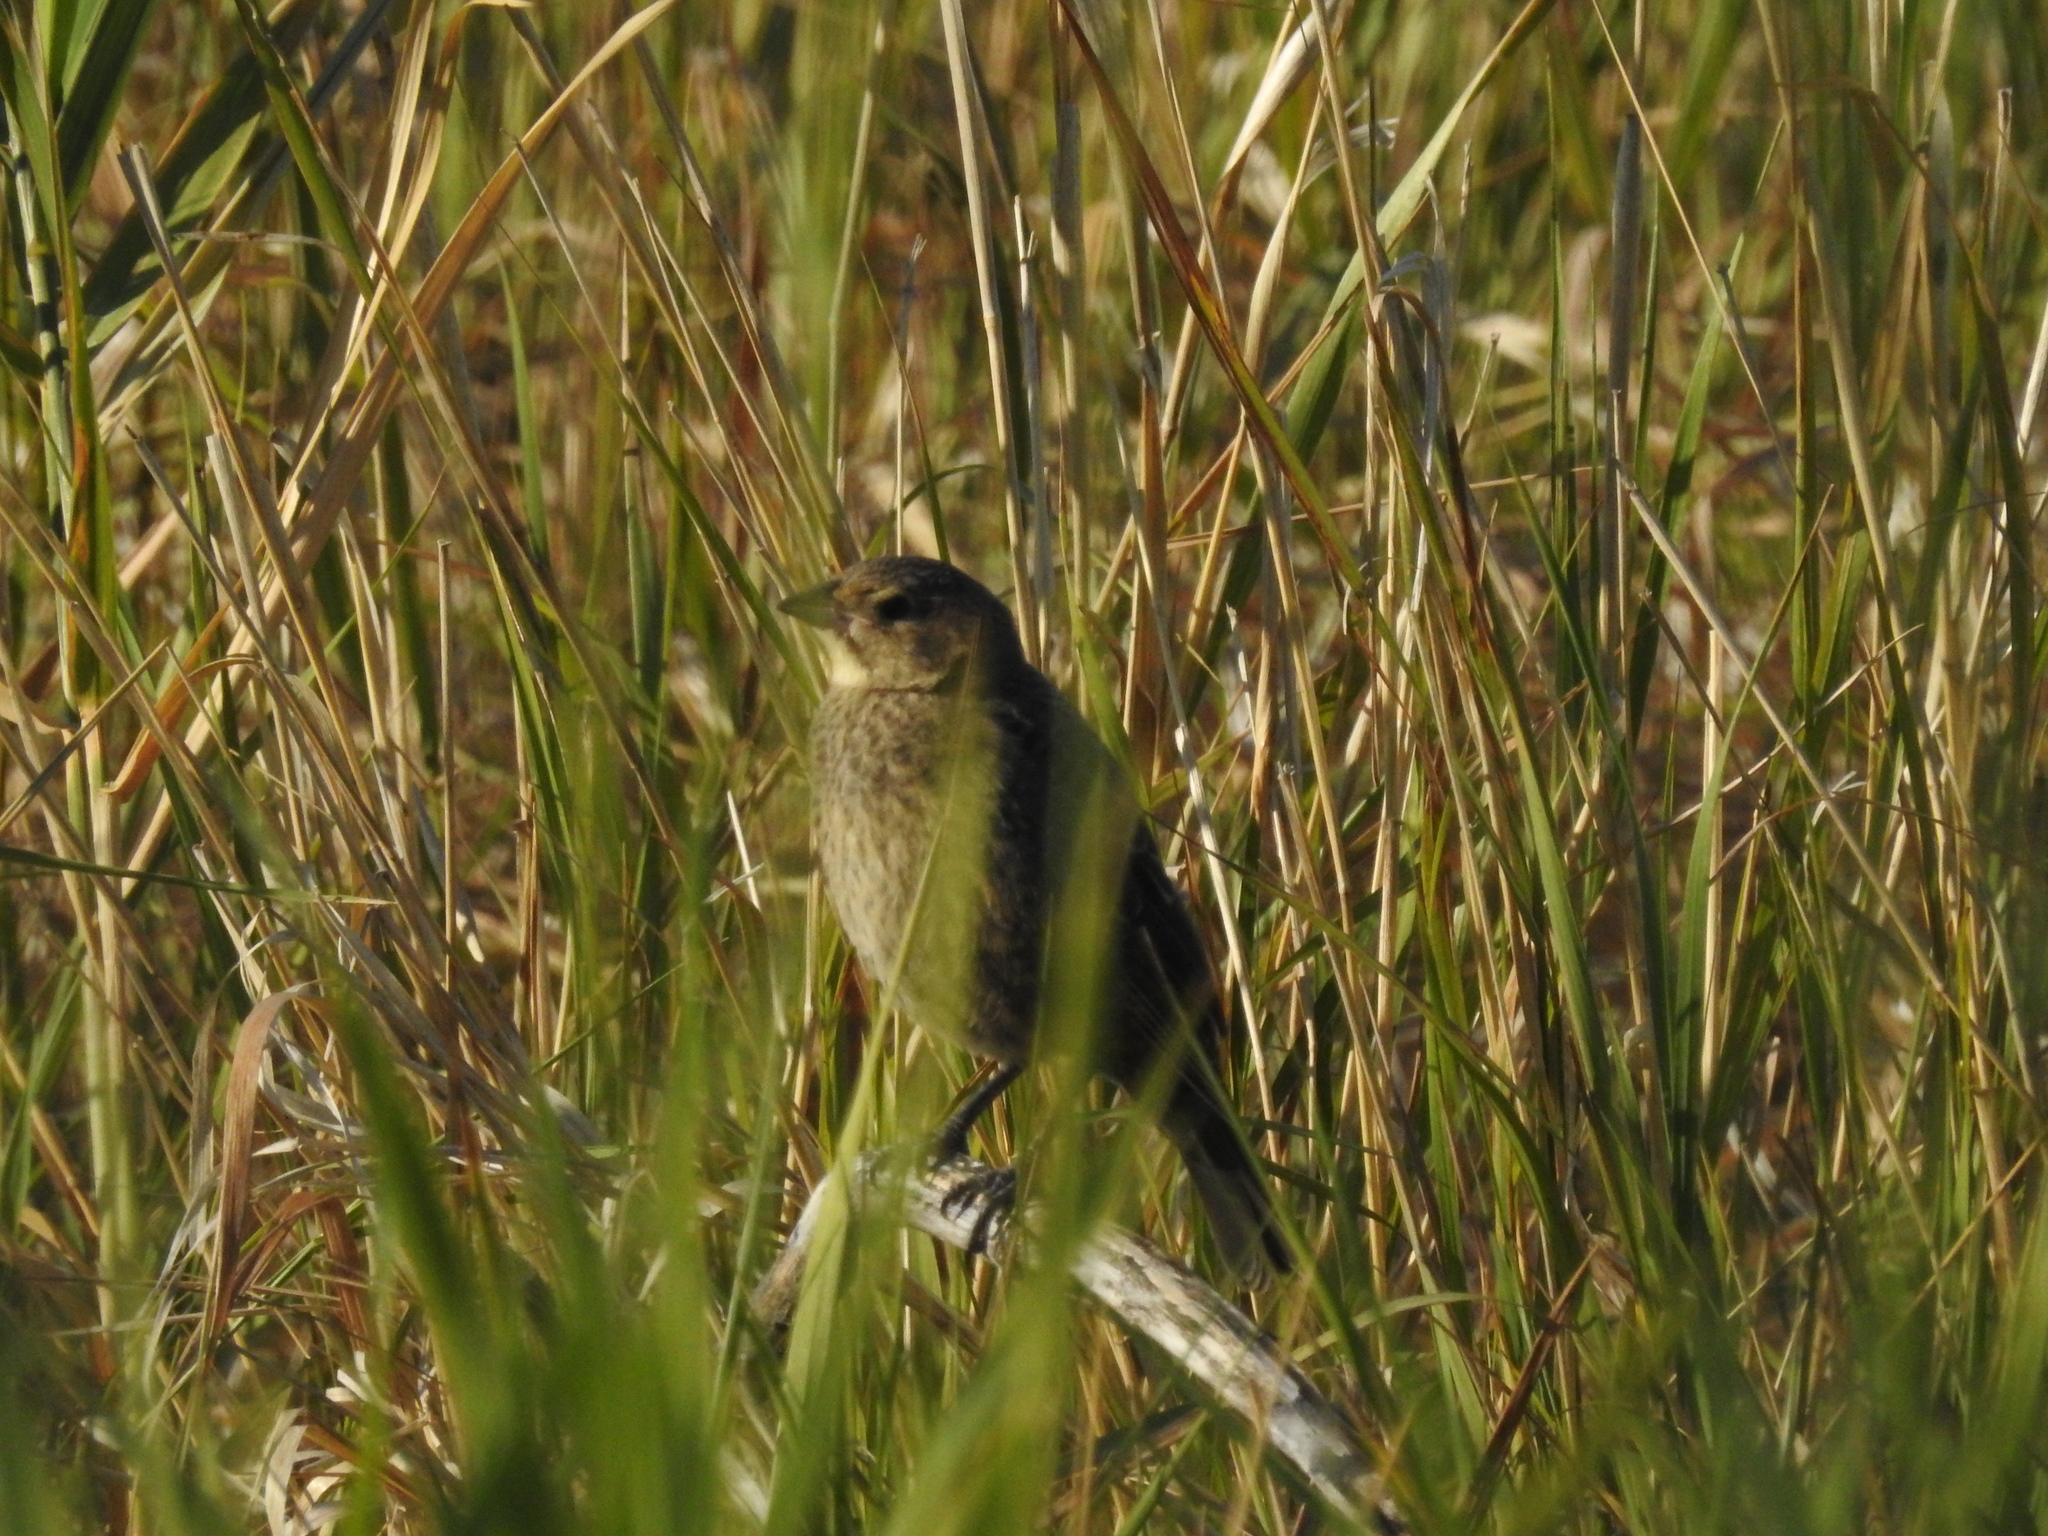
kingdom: Animalia
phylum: Chordata
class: Aves
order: Passeriformes
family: Icteridae
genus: Molothrus
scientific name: Molothrus ater
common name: Brown-headed cowbird
